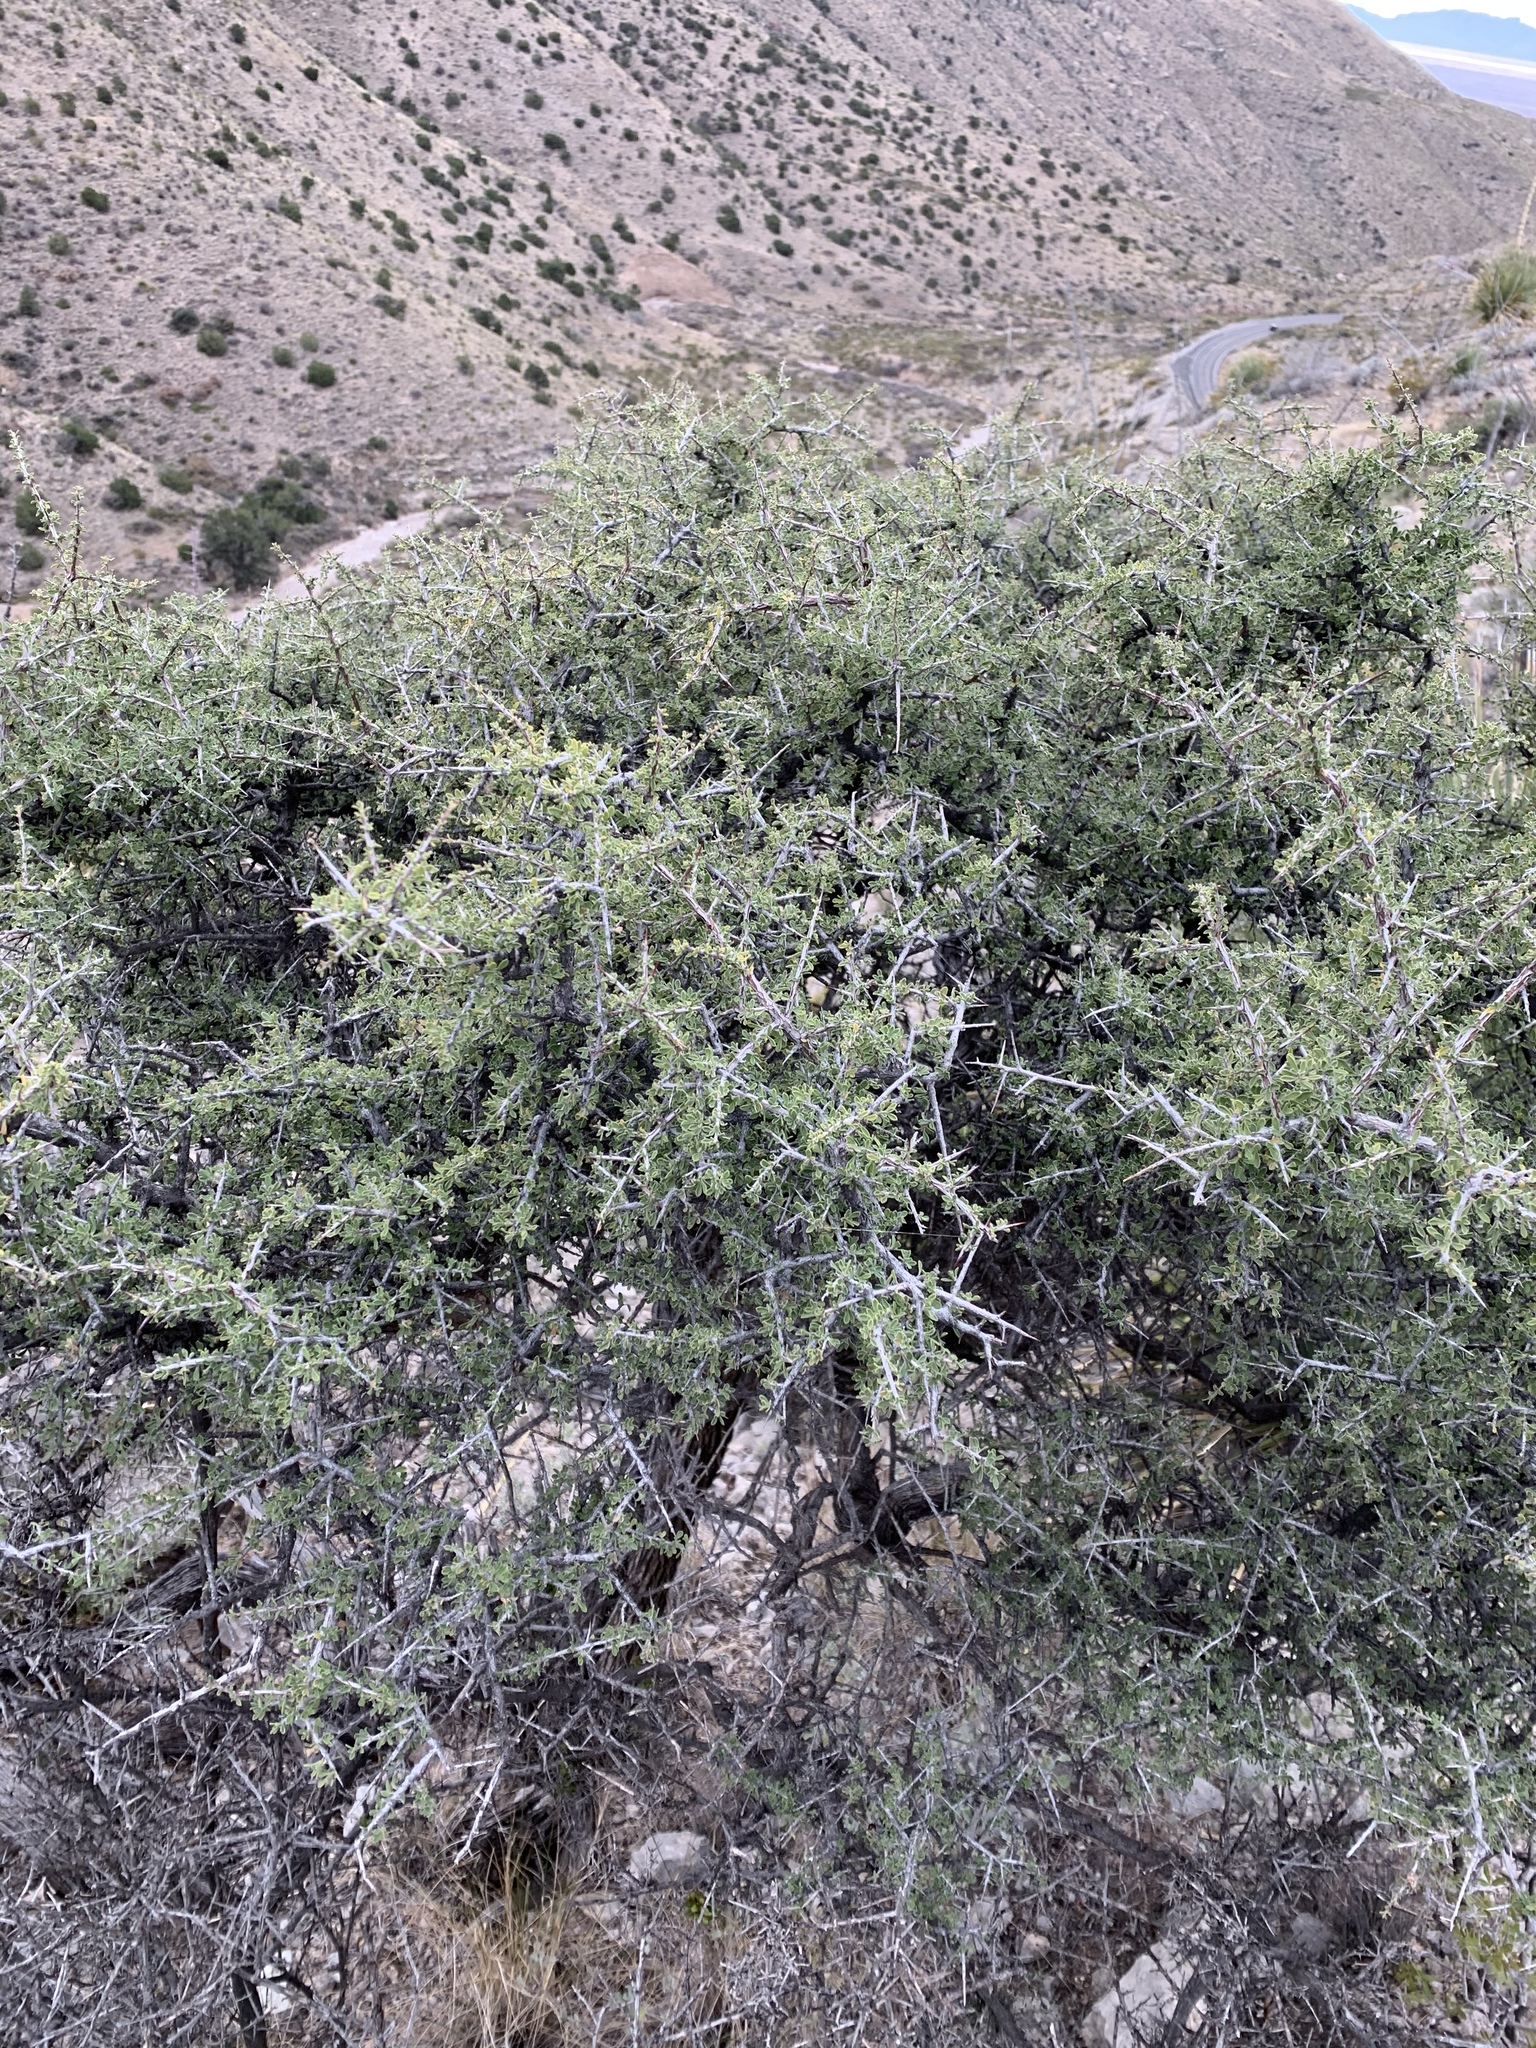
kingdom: Plantae
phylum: Tracheophyta
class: Magnoliopsida
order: Rosales
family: Rhamnaceae
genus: Condalia
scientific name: Condalia warnockii
